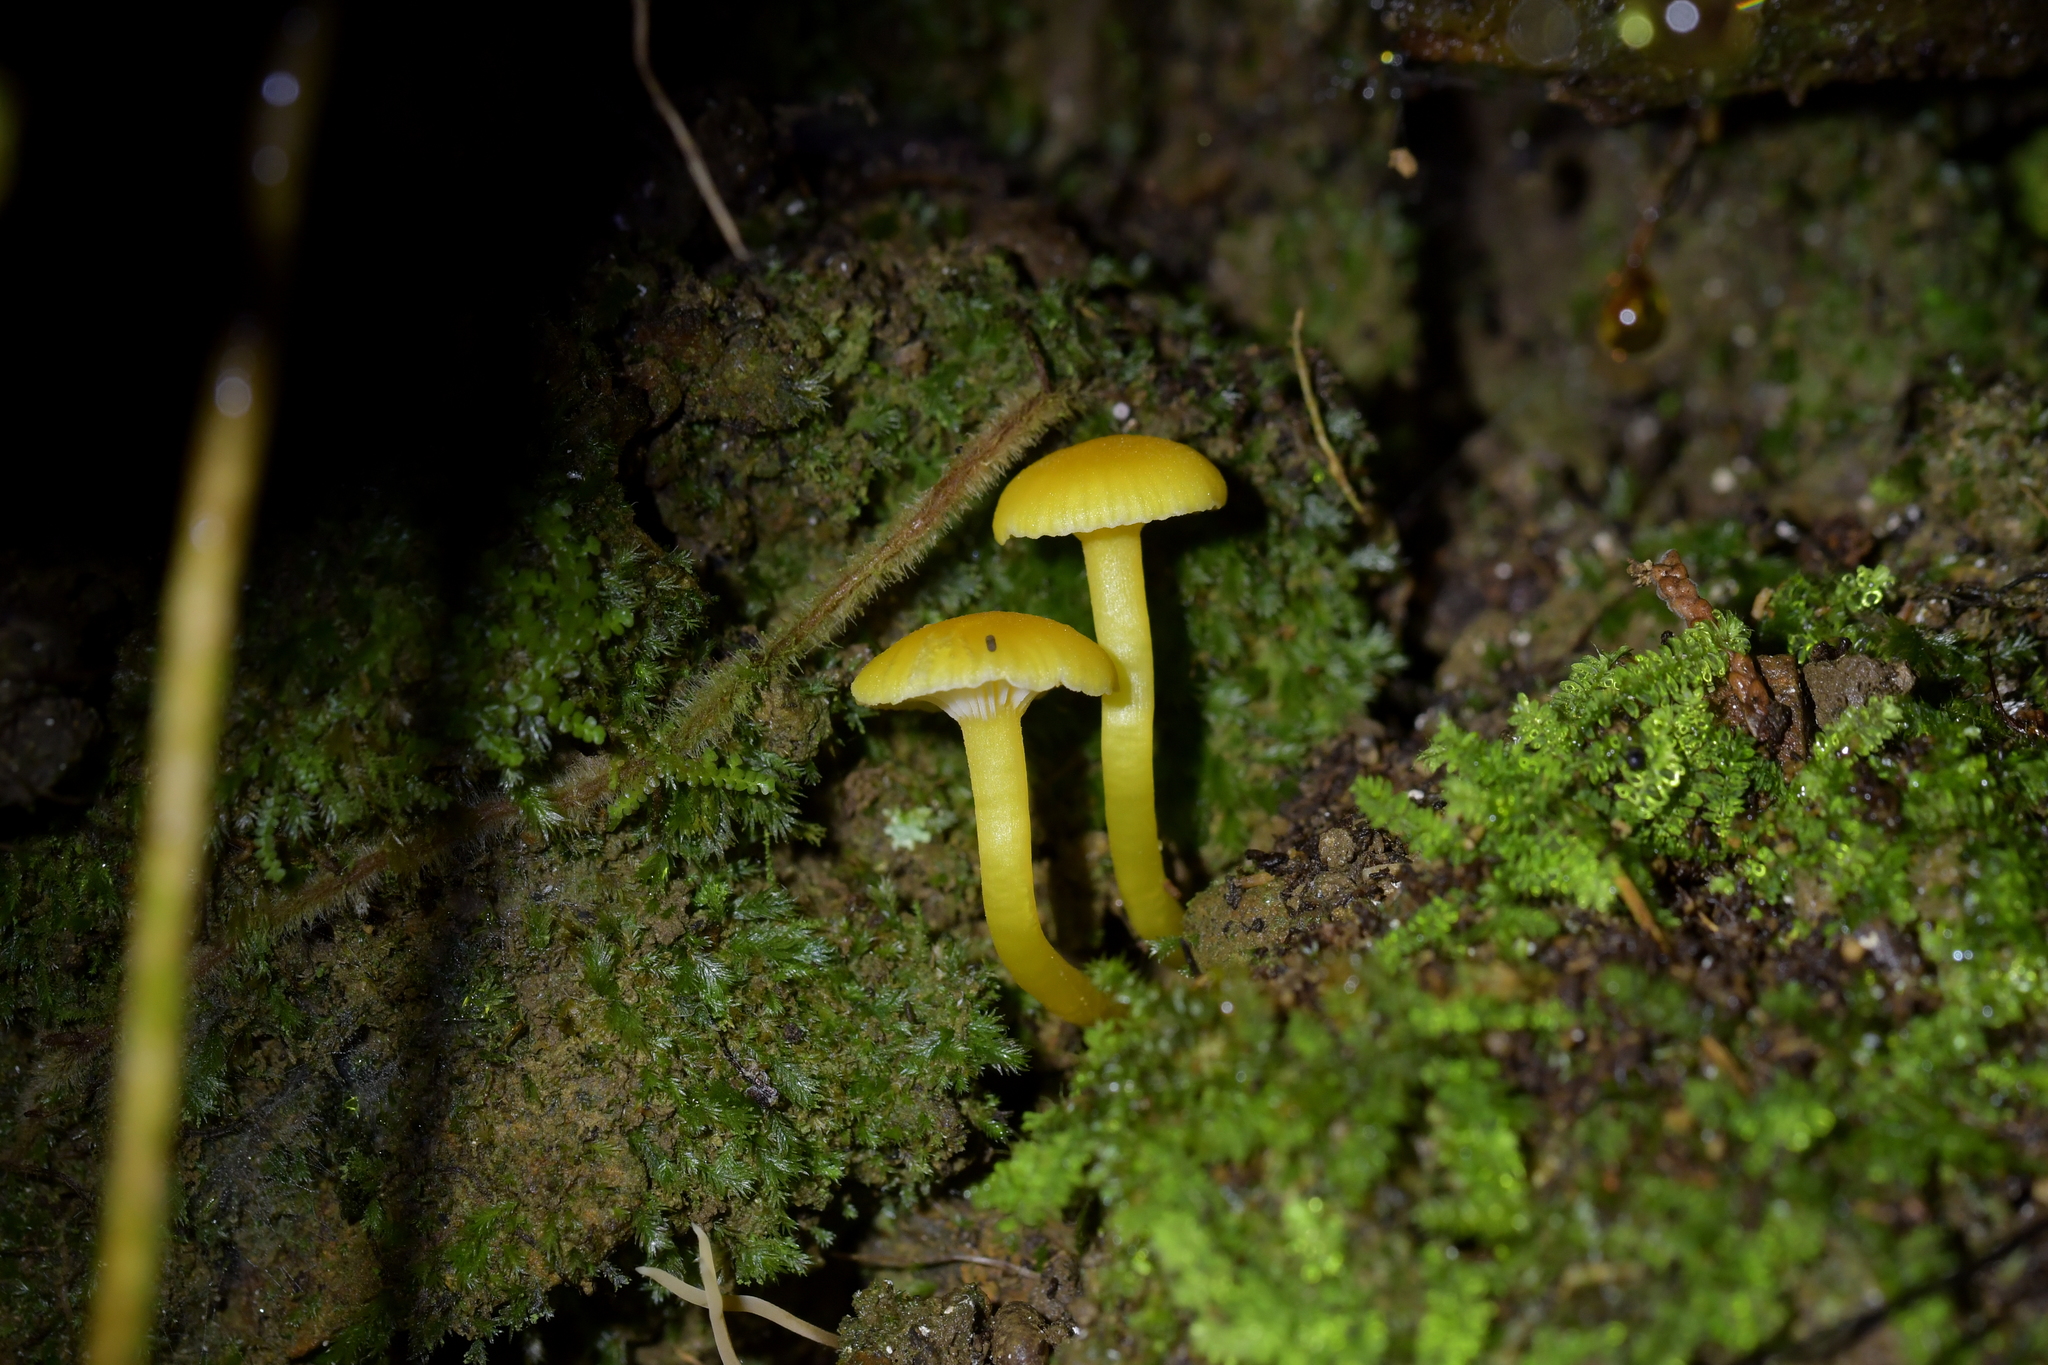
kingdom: Fungi
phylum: Basidiomycota
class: Agaricomycetes
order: Agaricales
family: Hygrophoraceae
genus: Gloioxanthomyces
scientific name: Gloioxanthomyces
